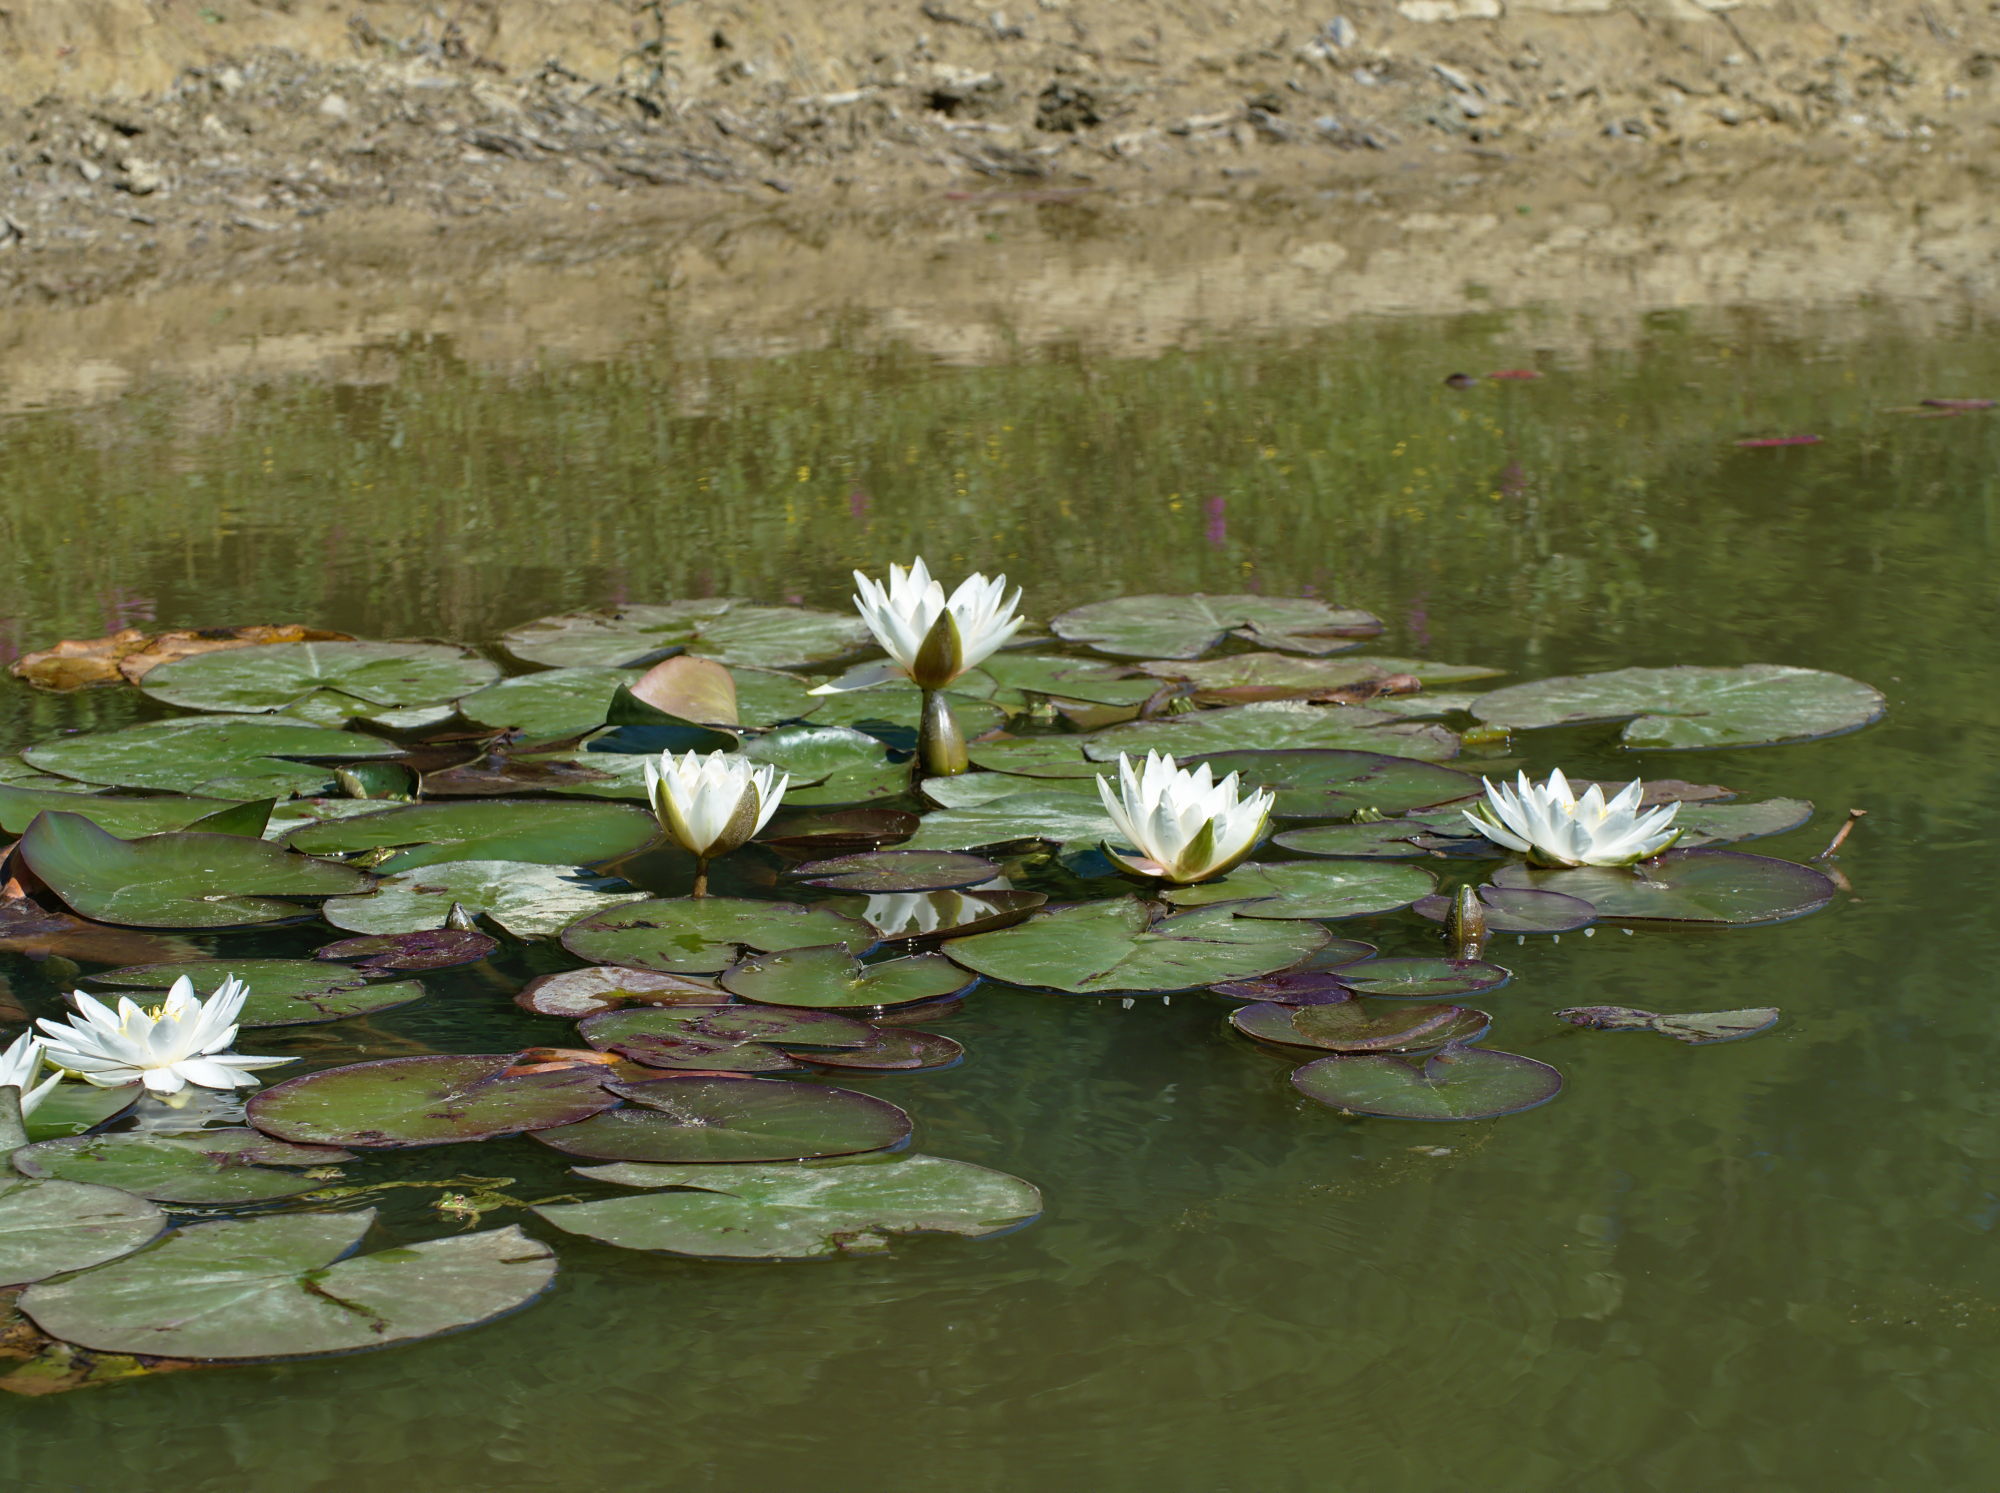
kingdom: Plantae
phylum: Tracheophyta
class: Magnoliopsida
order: Nymphaeales
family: Nymphaeaceae
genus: Nymphaea
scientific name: Nymphaea alba
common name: White water-lily
